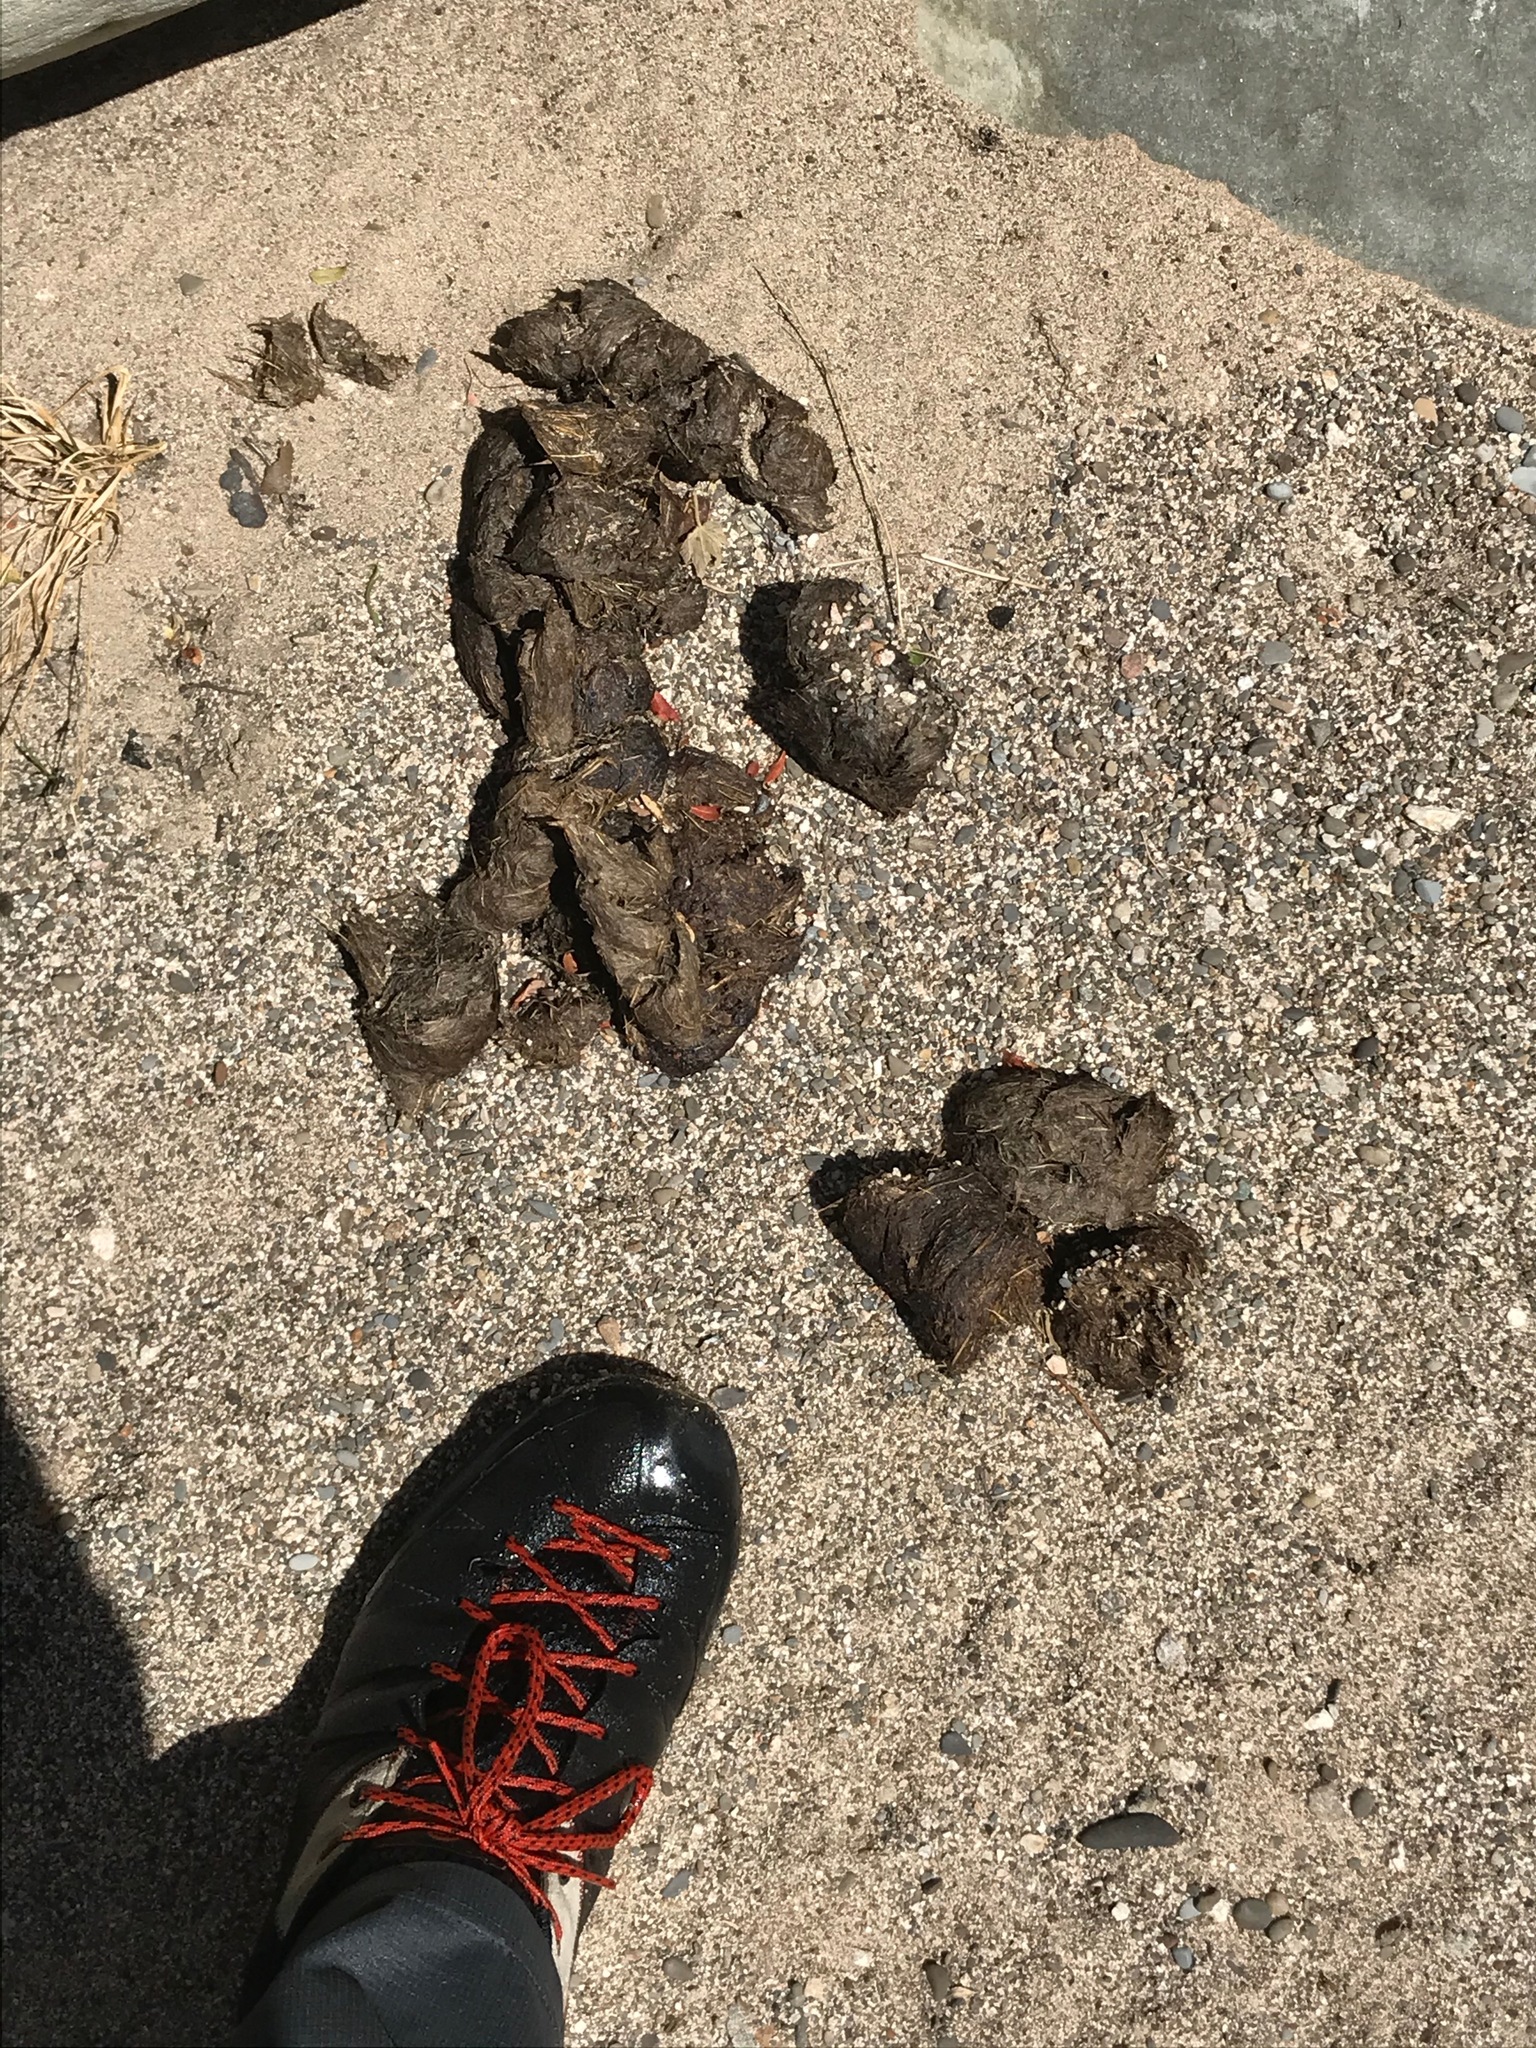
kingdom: Animalia
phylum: Chordata
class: Mammalia
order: Carnivora
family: Ursidae
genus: Ursus
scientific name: Ursus americanus
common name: American black bear
